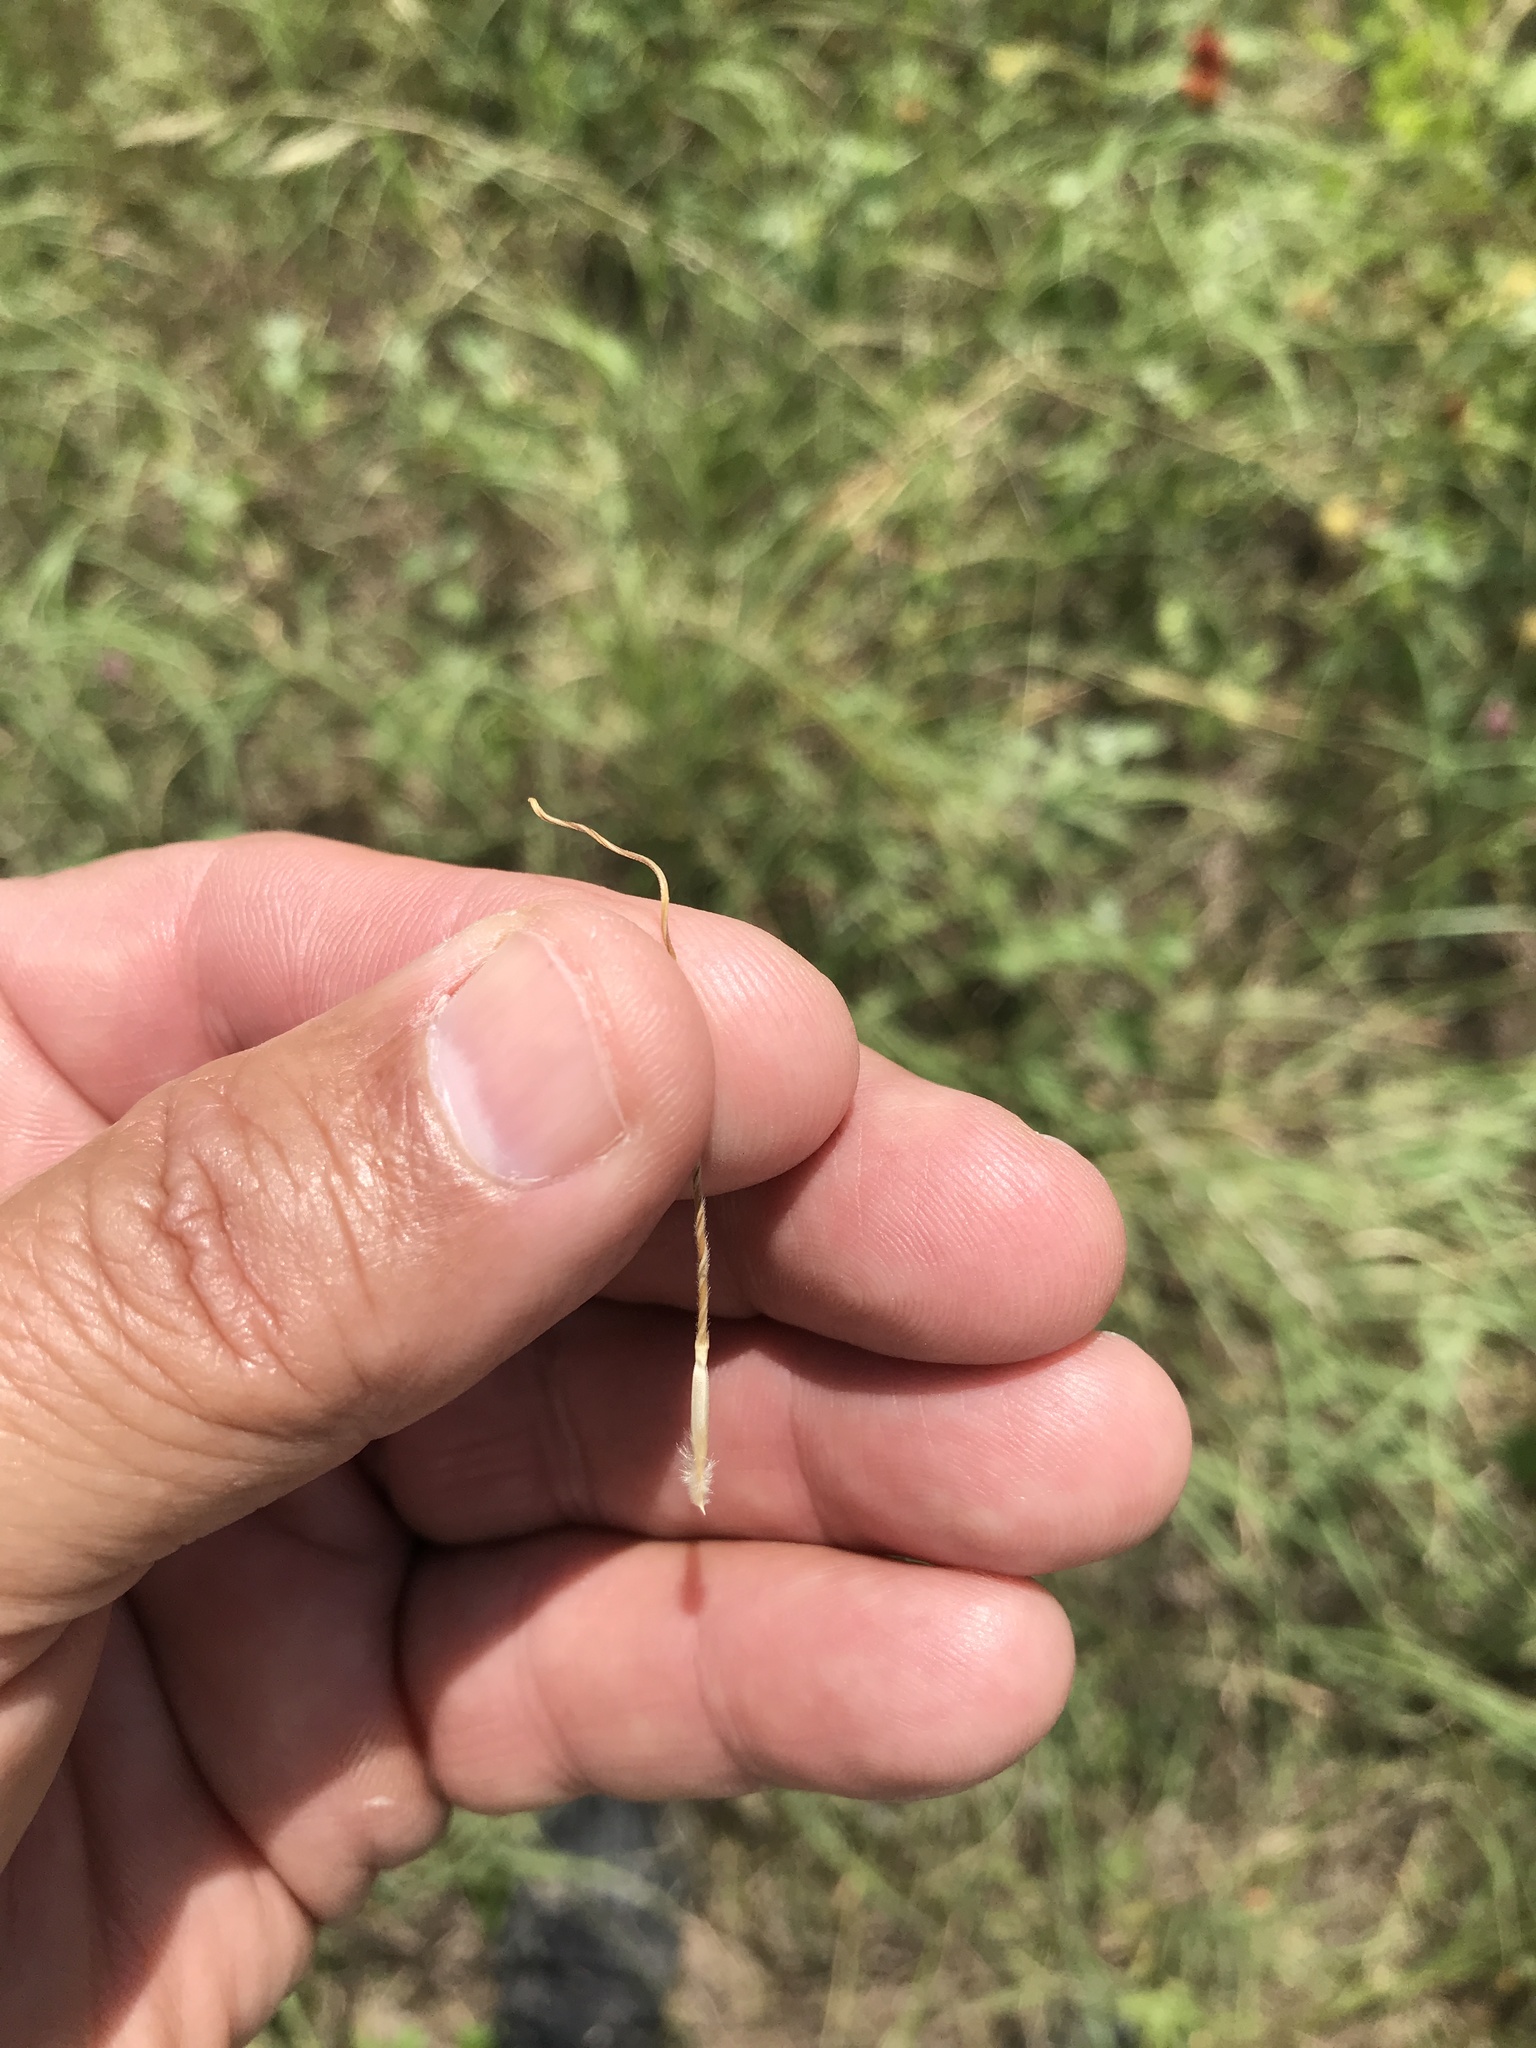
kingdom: Plantae
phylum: Tracheophyta
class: Liliopsida
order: Poales
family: Poaceae
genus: Nassella
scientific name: Nassella leucotricha
